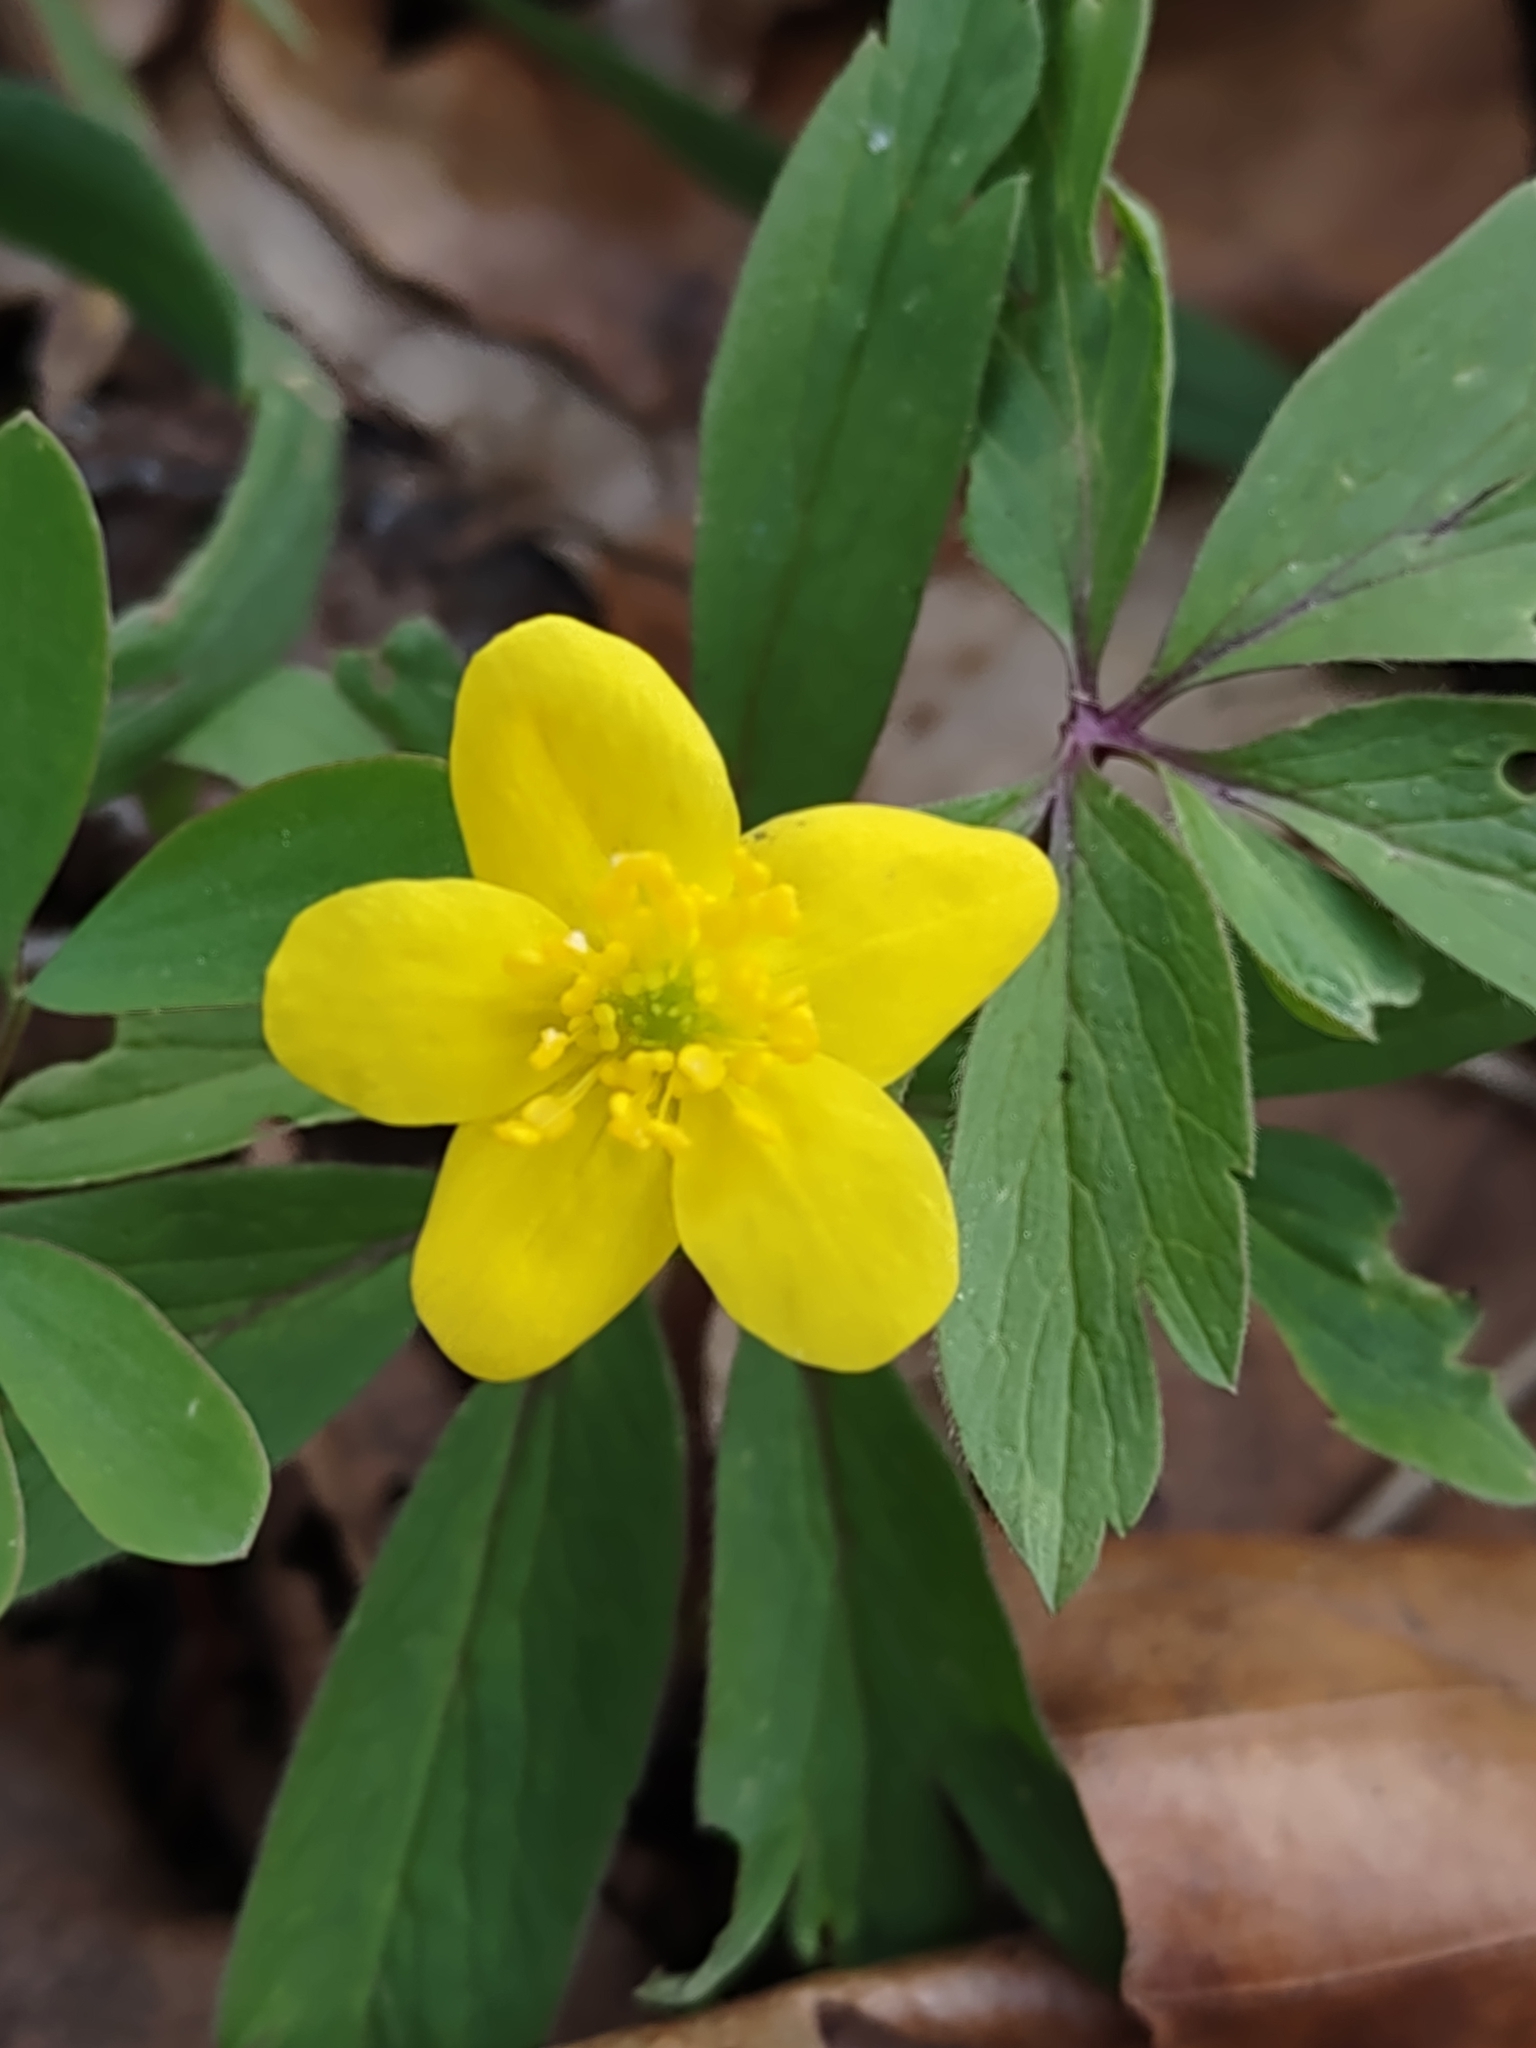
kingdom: Plantae
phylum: Tracheophyta
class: Magnoliopsida
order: Ranunculales
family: Ranunculaceae
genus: Anemone
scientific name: Anemone ranunculoides
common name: Yellow anemone
